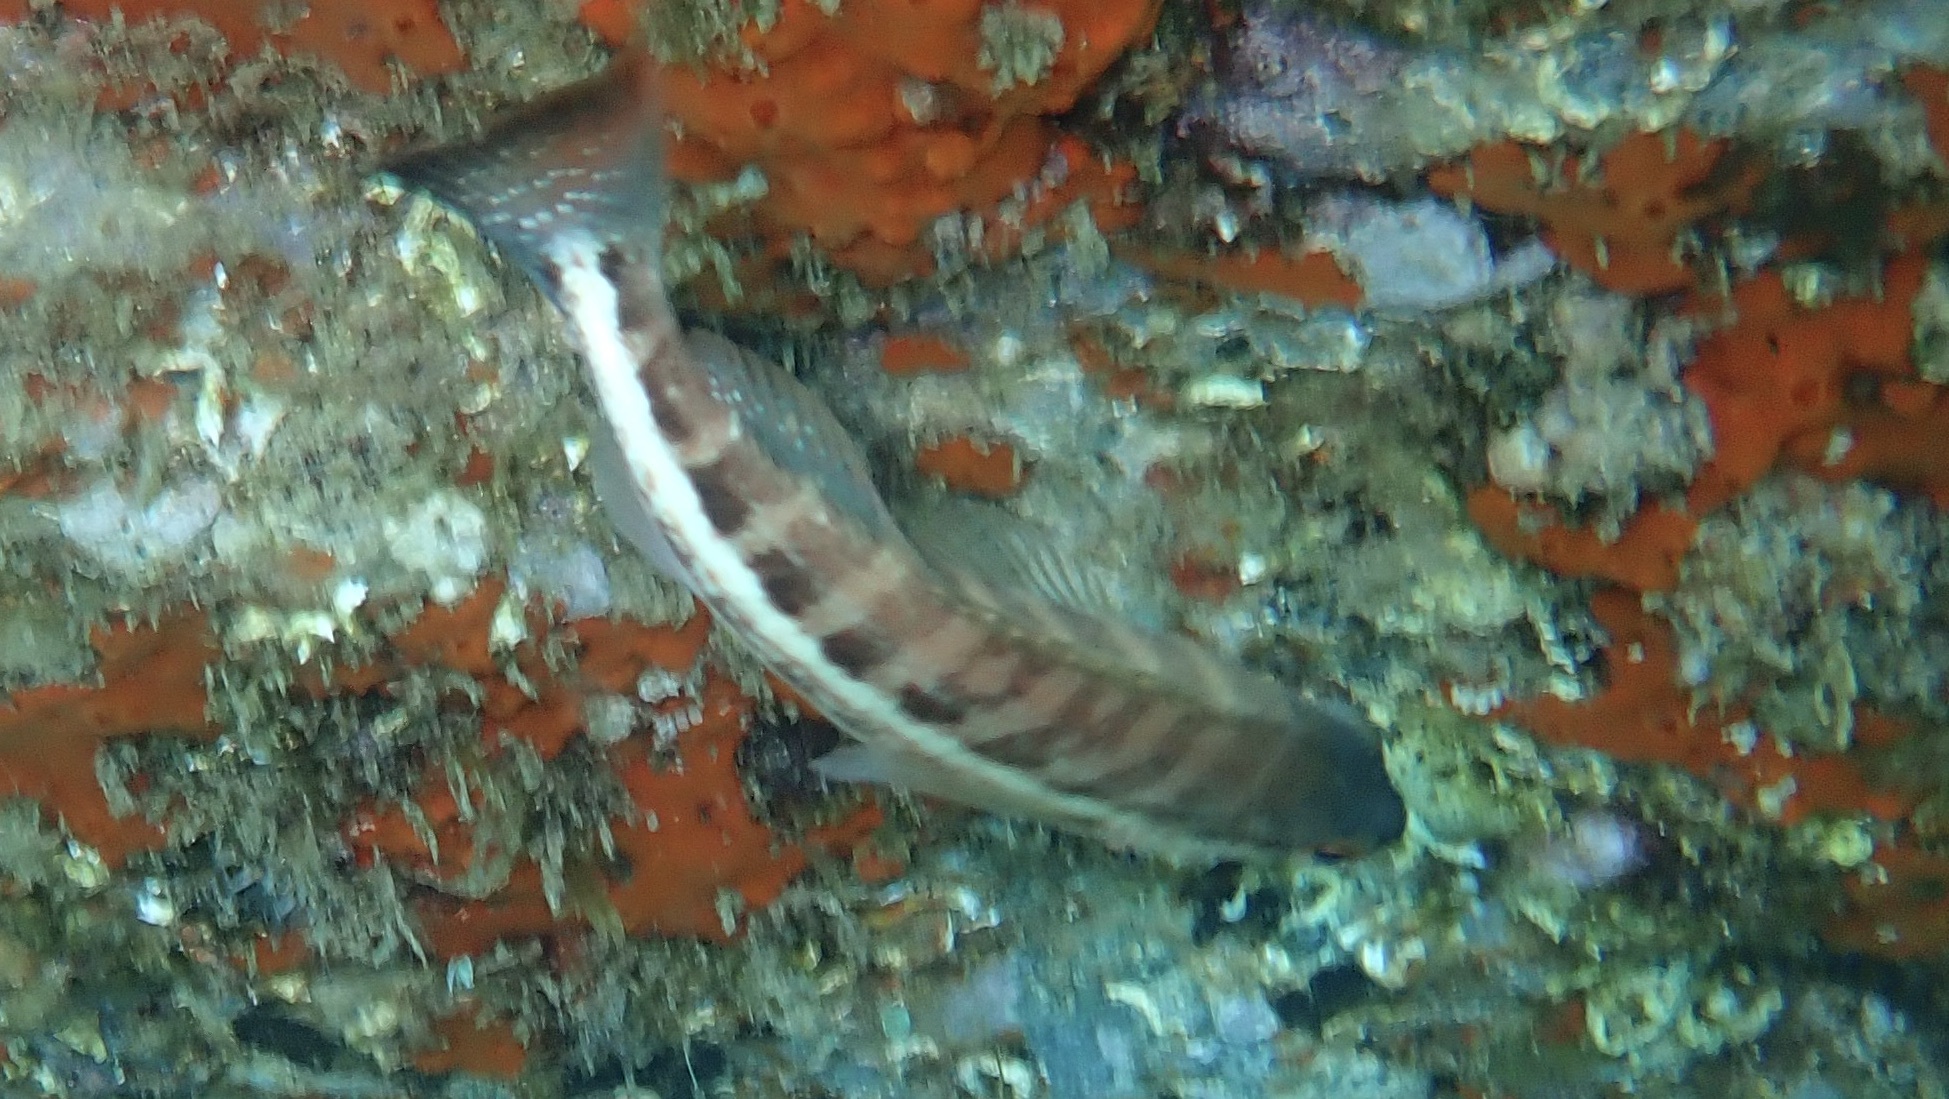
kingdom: Animalia
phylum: Chordata
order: Perciformes
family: Serranidae
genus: Serranus
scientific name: Serranus cabrilla
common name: Comber
